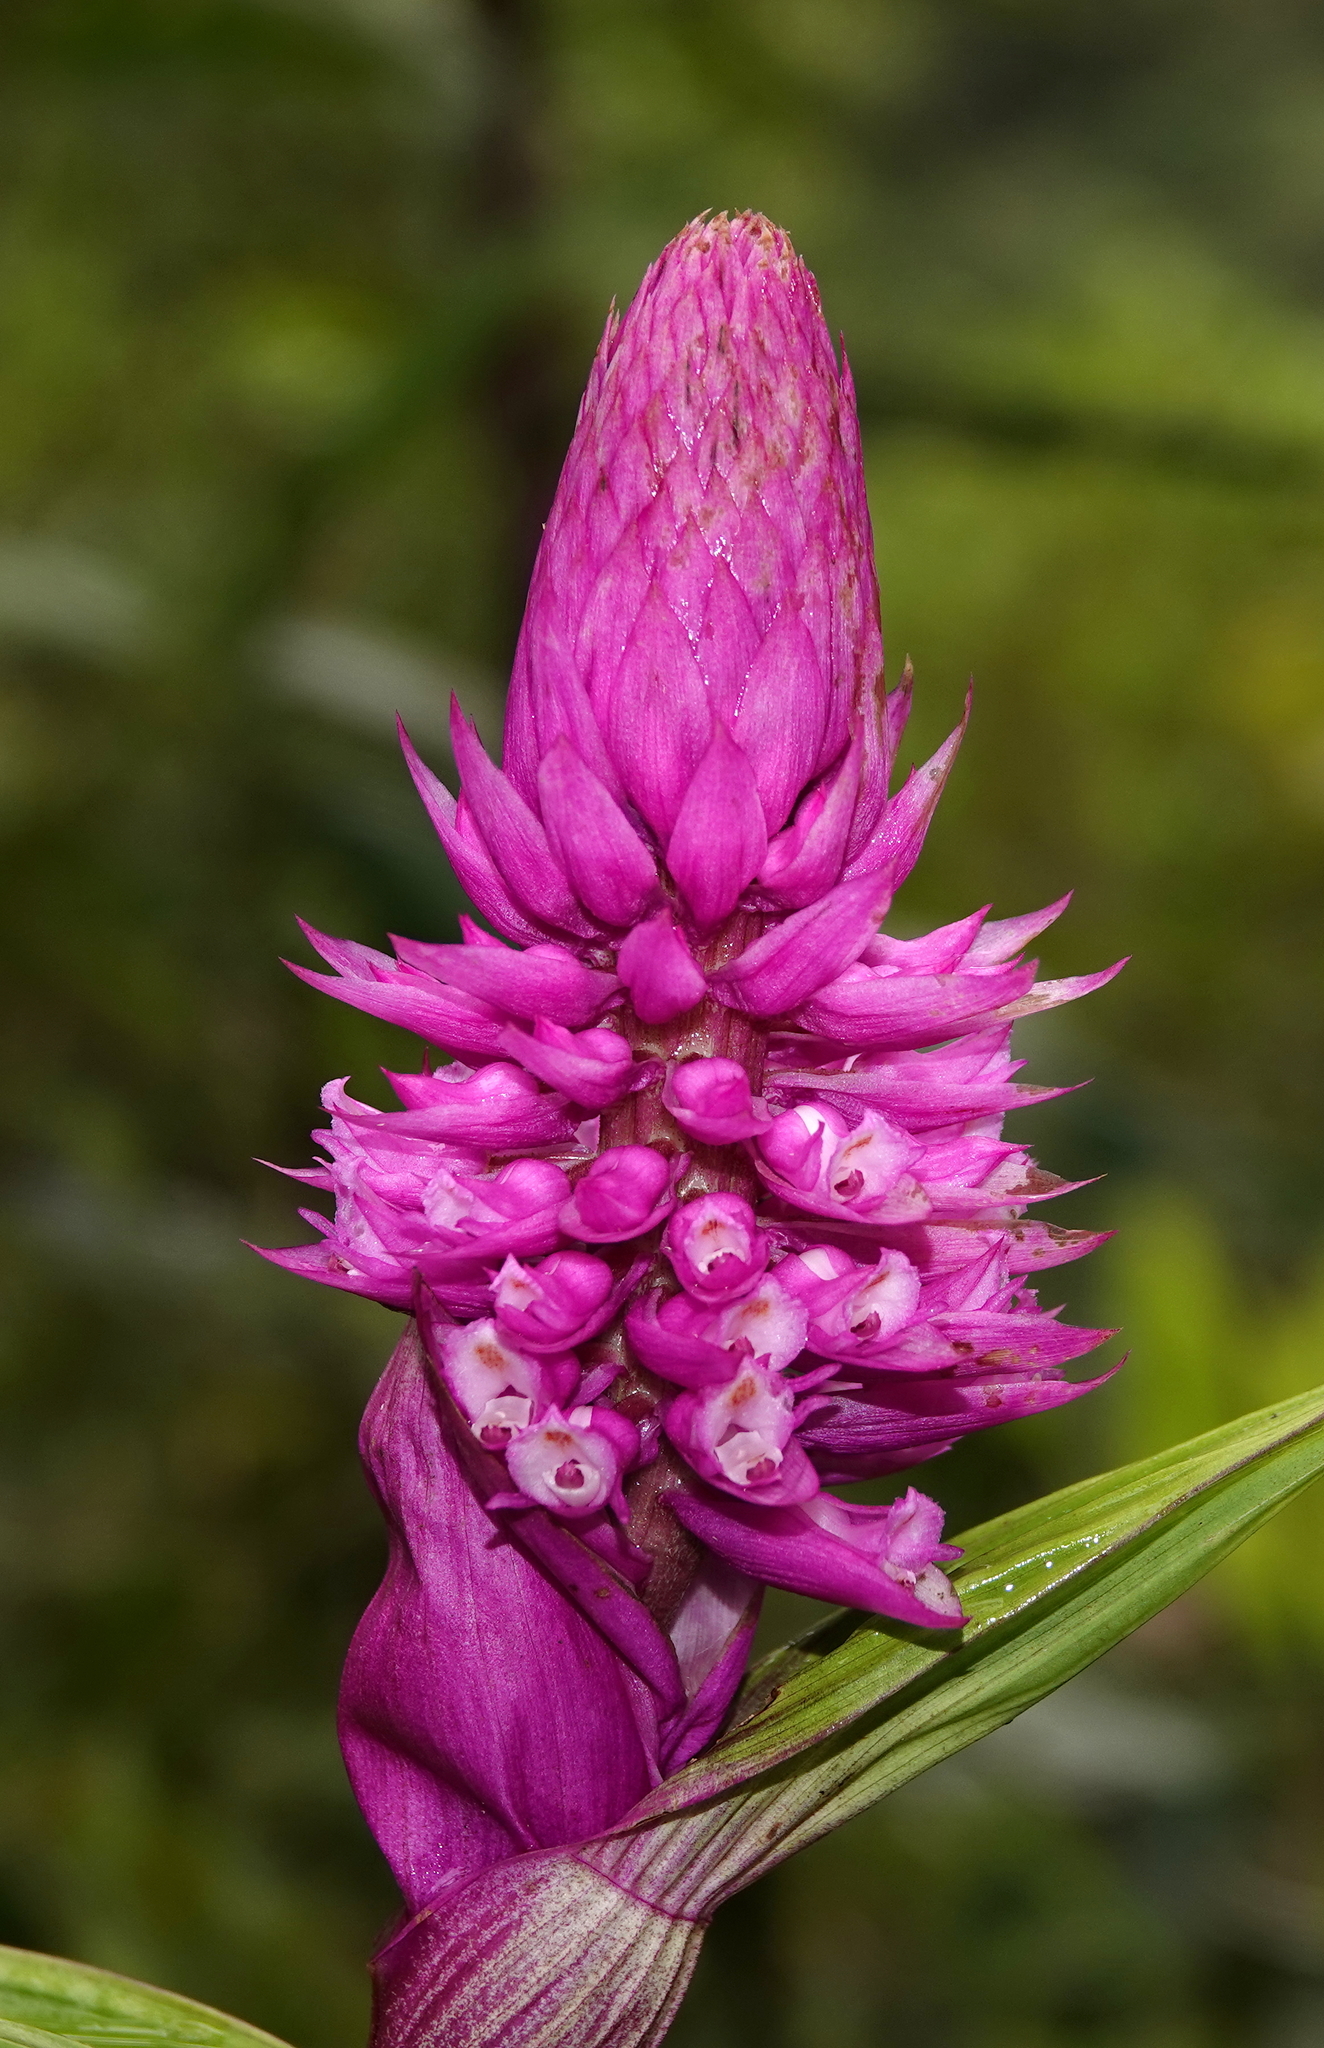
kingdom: Plantae
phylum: Tracheophyta
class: Liliopsida
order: Asparagales
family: Orchidaceae
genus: Elleanthus
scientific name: Elleanthus robustus
